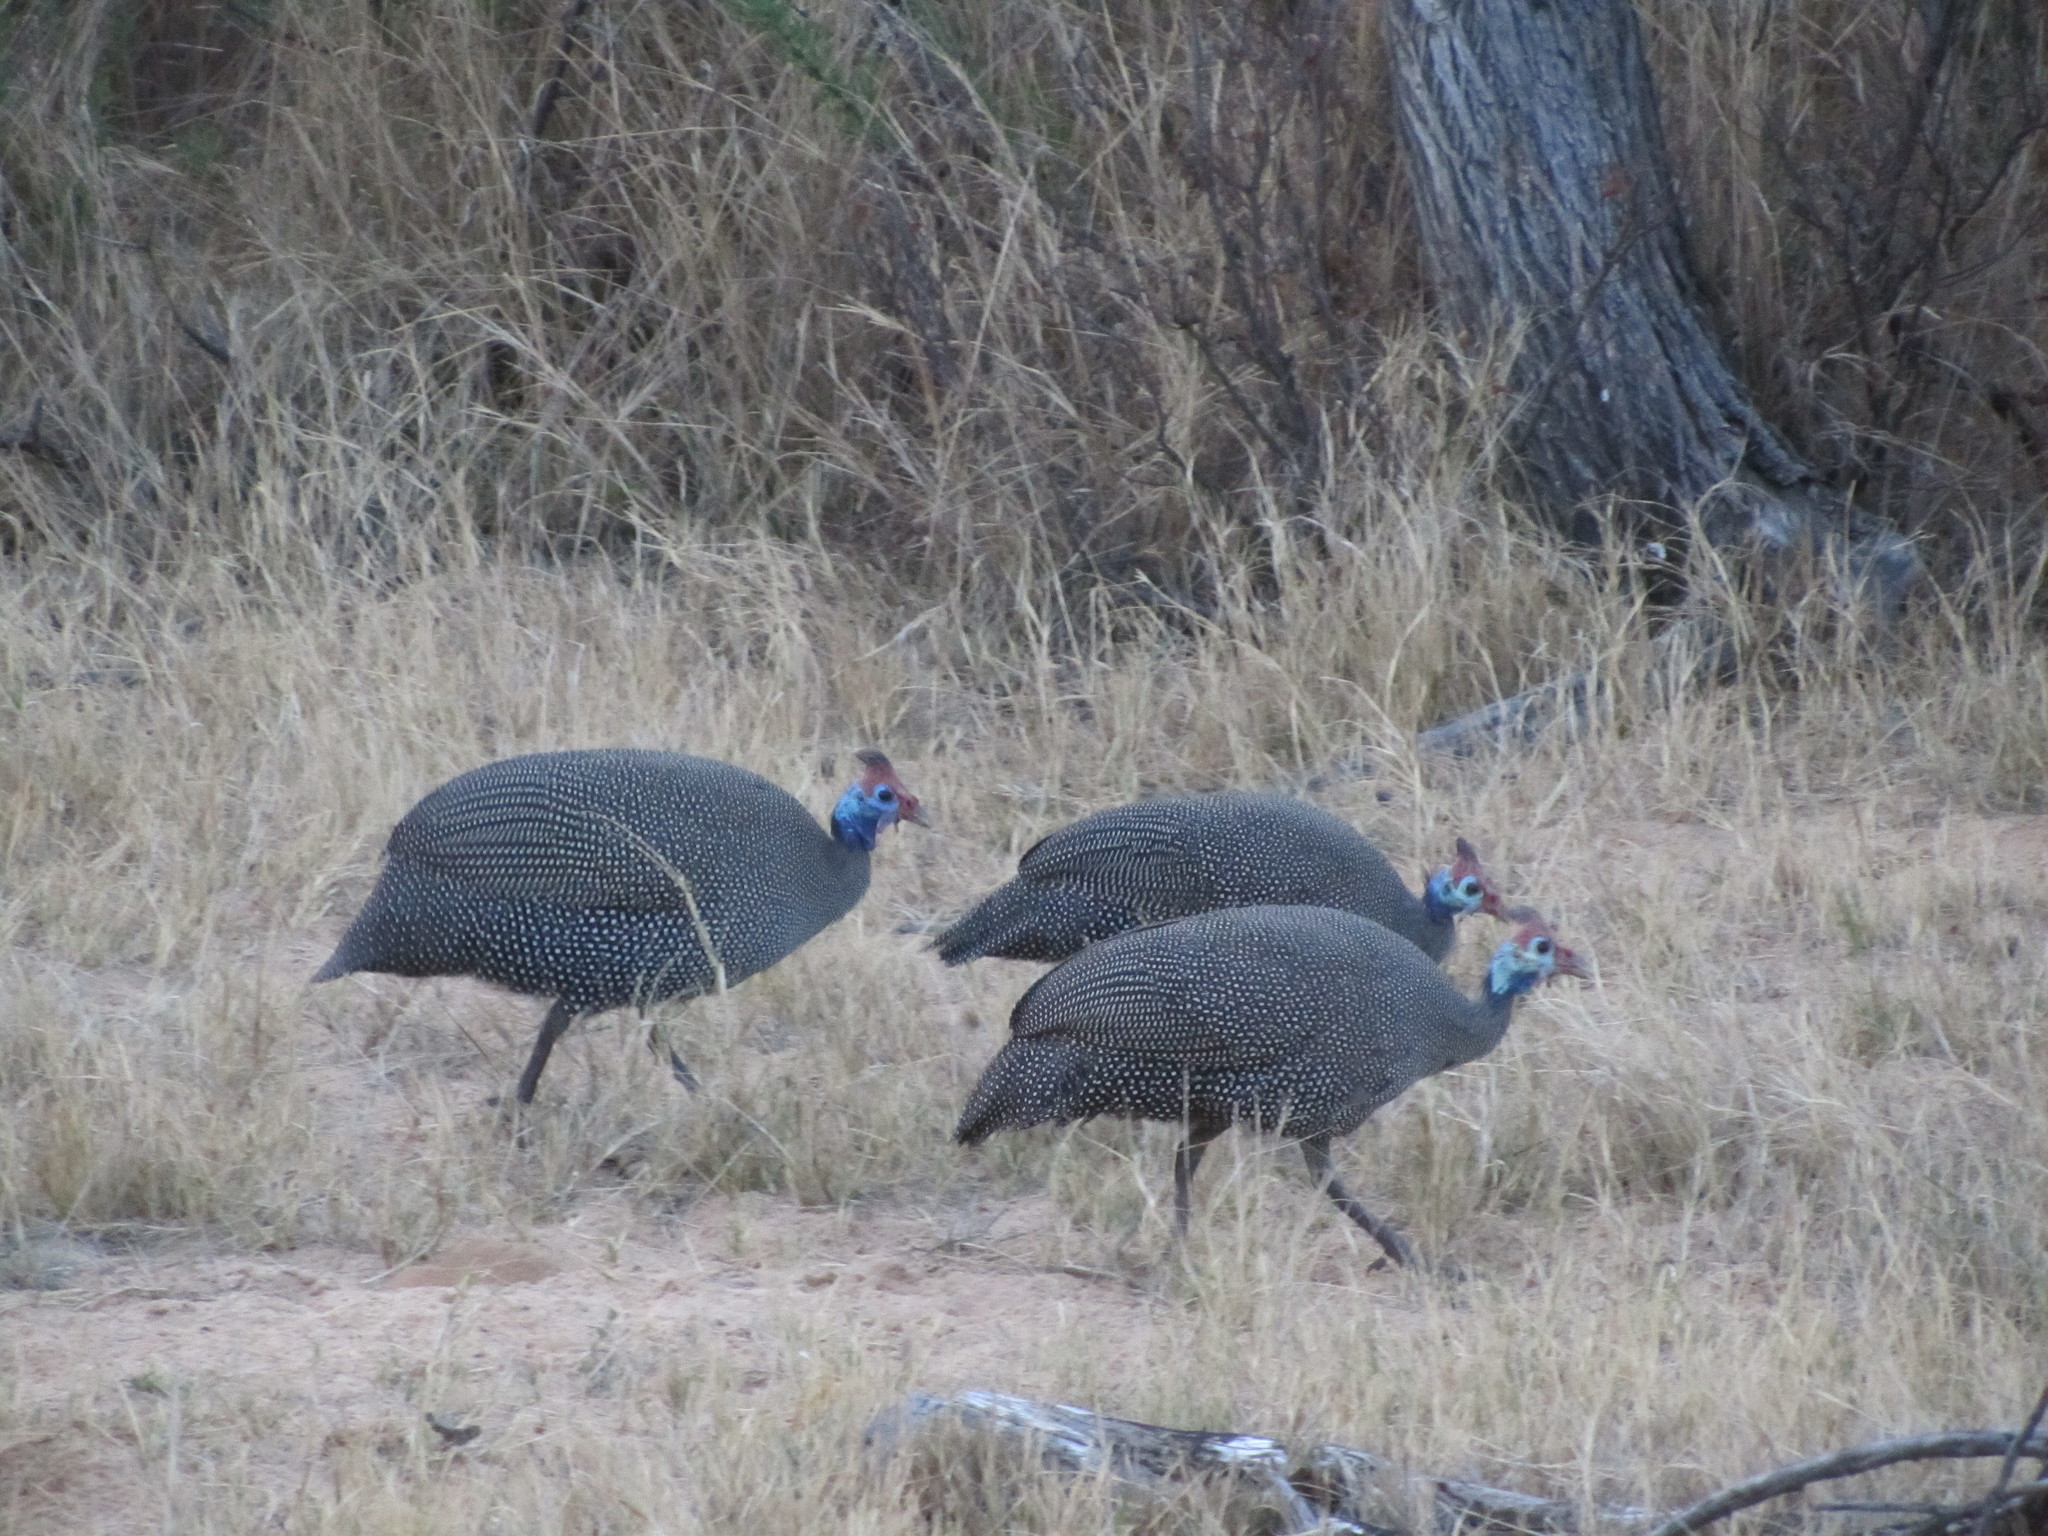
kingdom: Animalia
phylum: Chordata
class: Aves
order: Galliformes
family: Numididae
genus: Numida
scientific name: Numida meleagris
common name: Helmeted guineafowl
